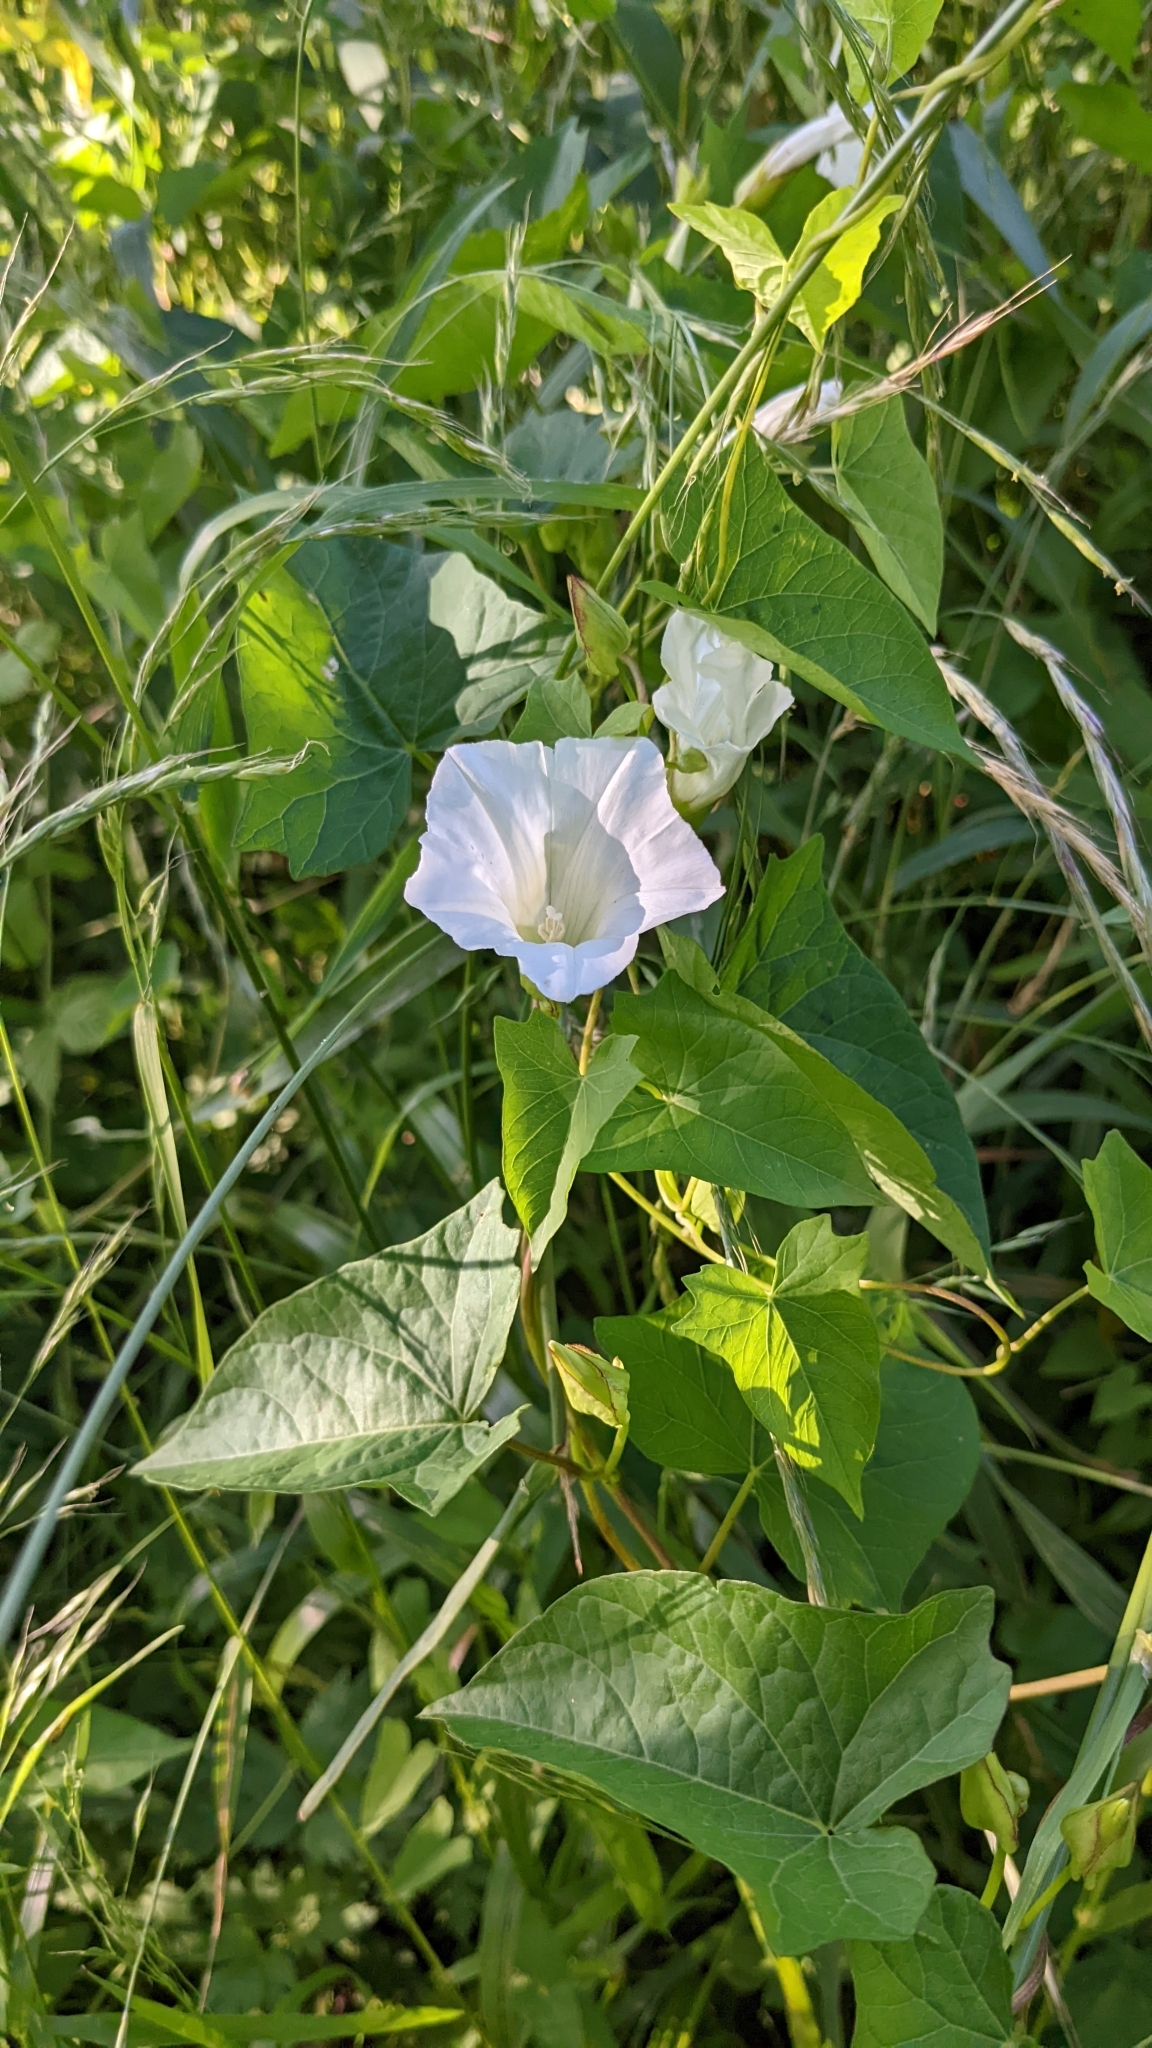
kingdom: Plantae
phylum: Tracheophyta
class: Magnoliopsida
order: Solanales
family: Convolvulaceae
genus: Calystegia
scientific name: Calystegia sepium
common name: Hedge bindweed
